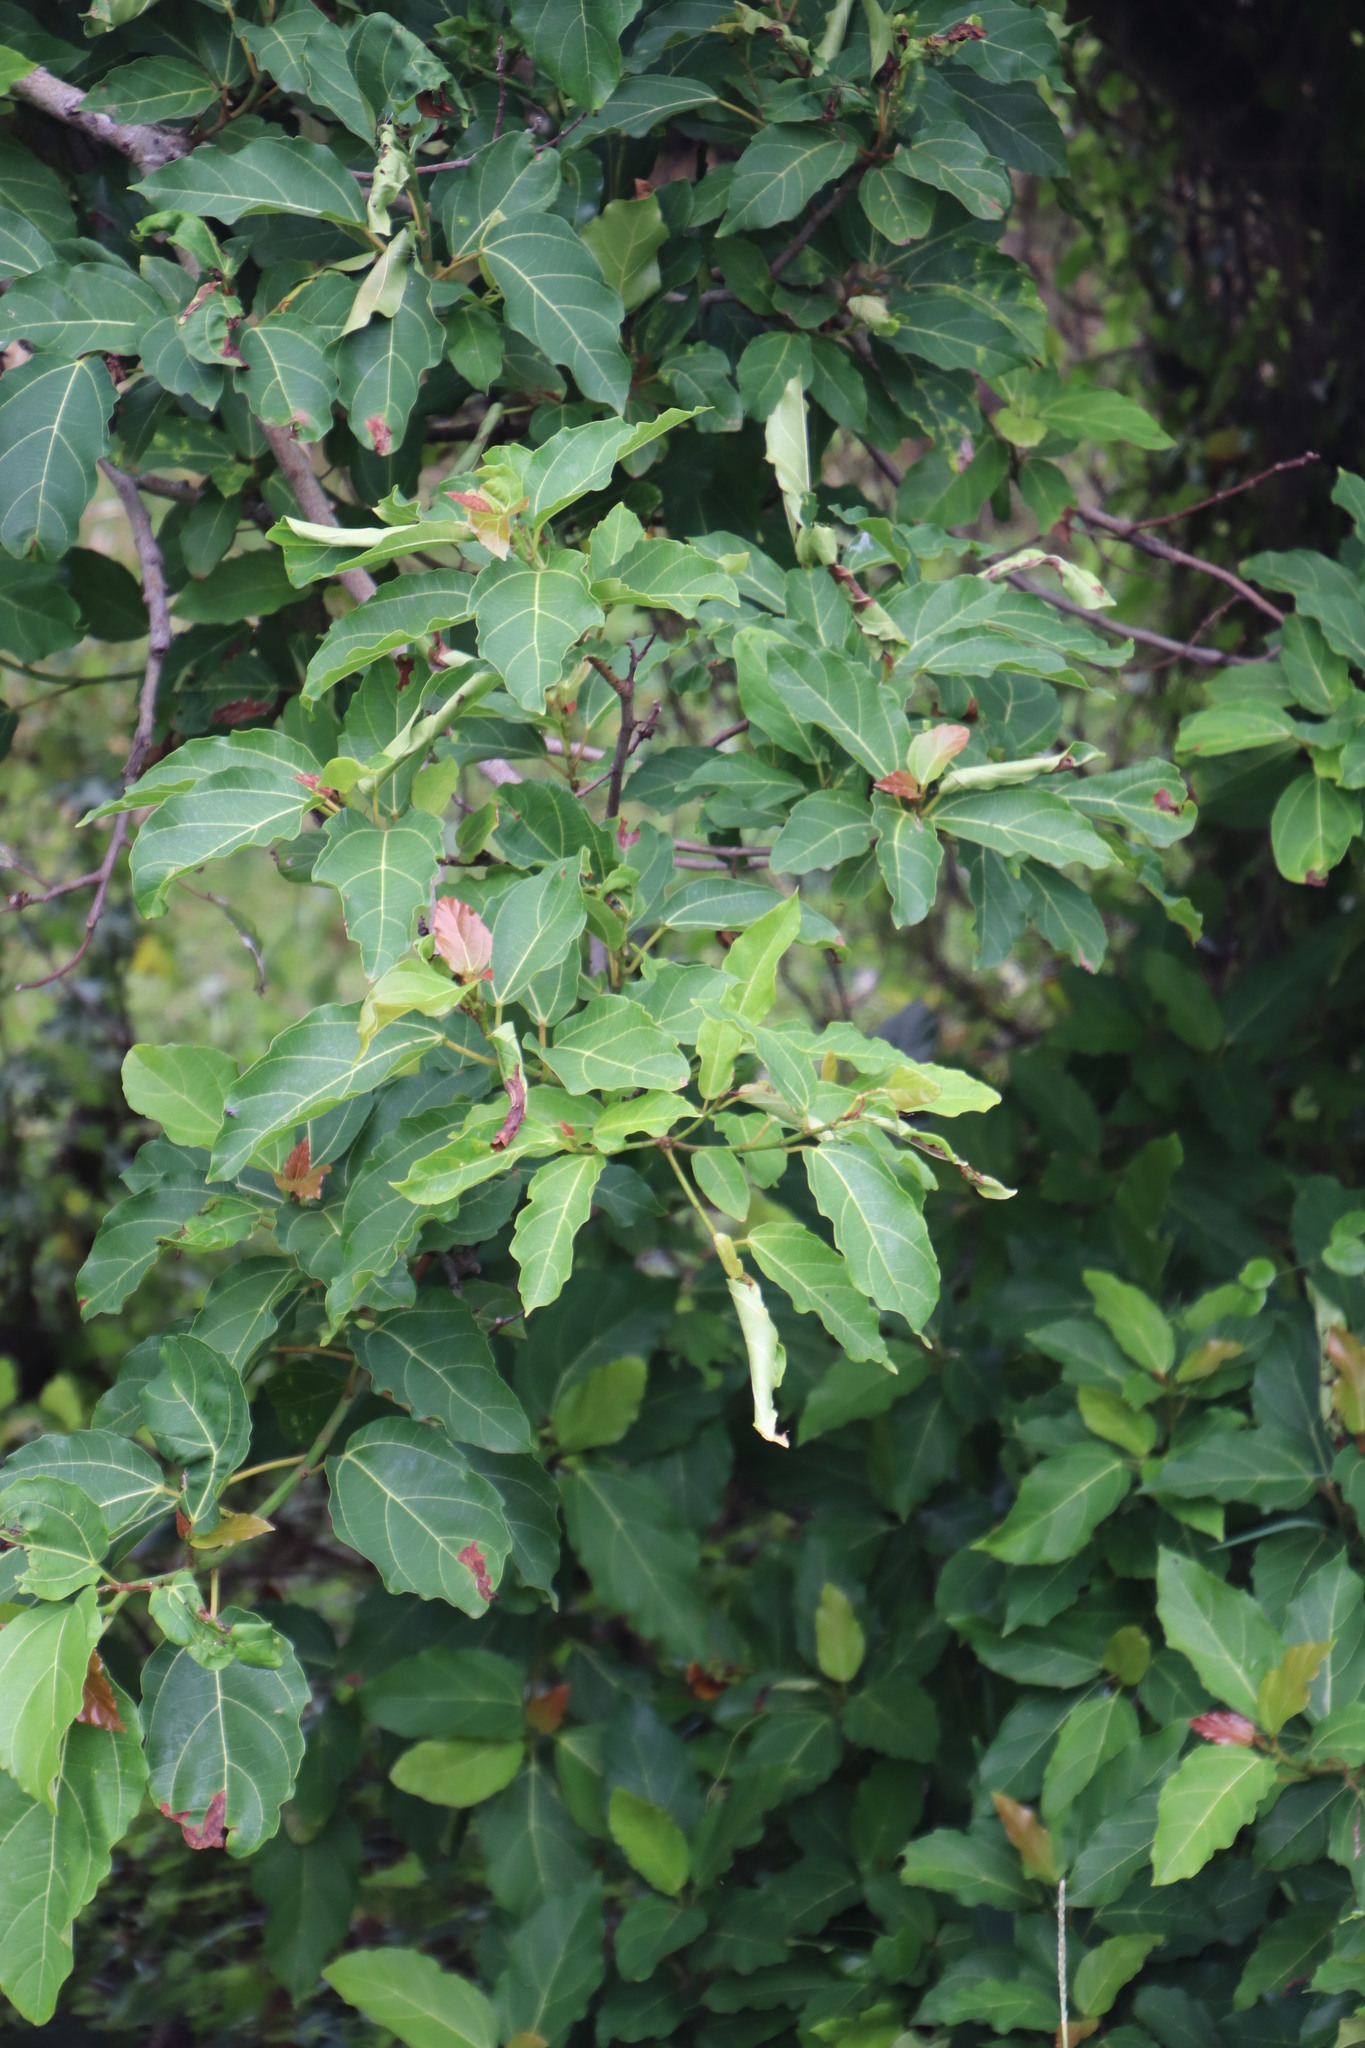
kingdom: Plantae
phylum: Tracheophyta
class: Magnoliopsida
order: Rosales
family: Moraceae
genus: Ficus
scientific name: Ficus sur
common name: Cape fig
